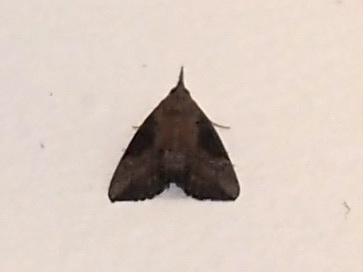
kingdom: Animalia
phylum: Arthropoda
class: Insecta
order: Lepidoptera
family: Erebidae
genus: Hypena
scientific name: Hypena scabra
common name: Green cloverworm
